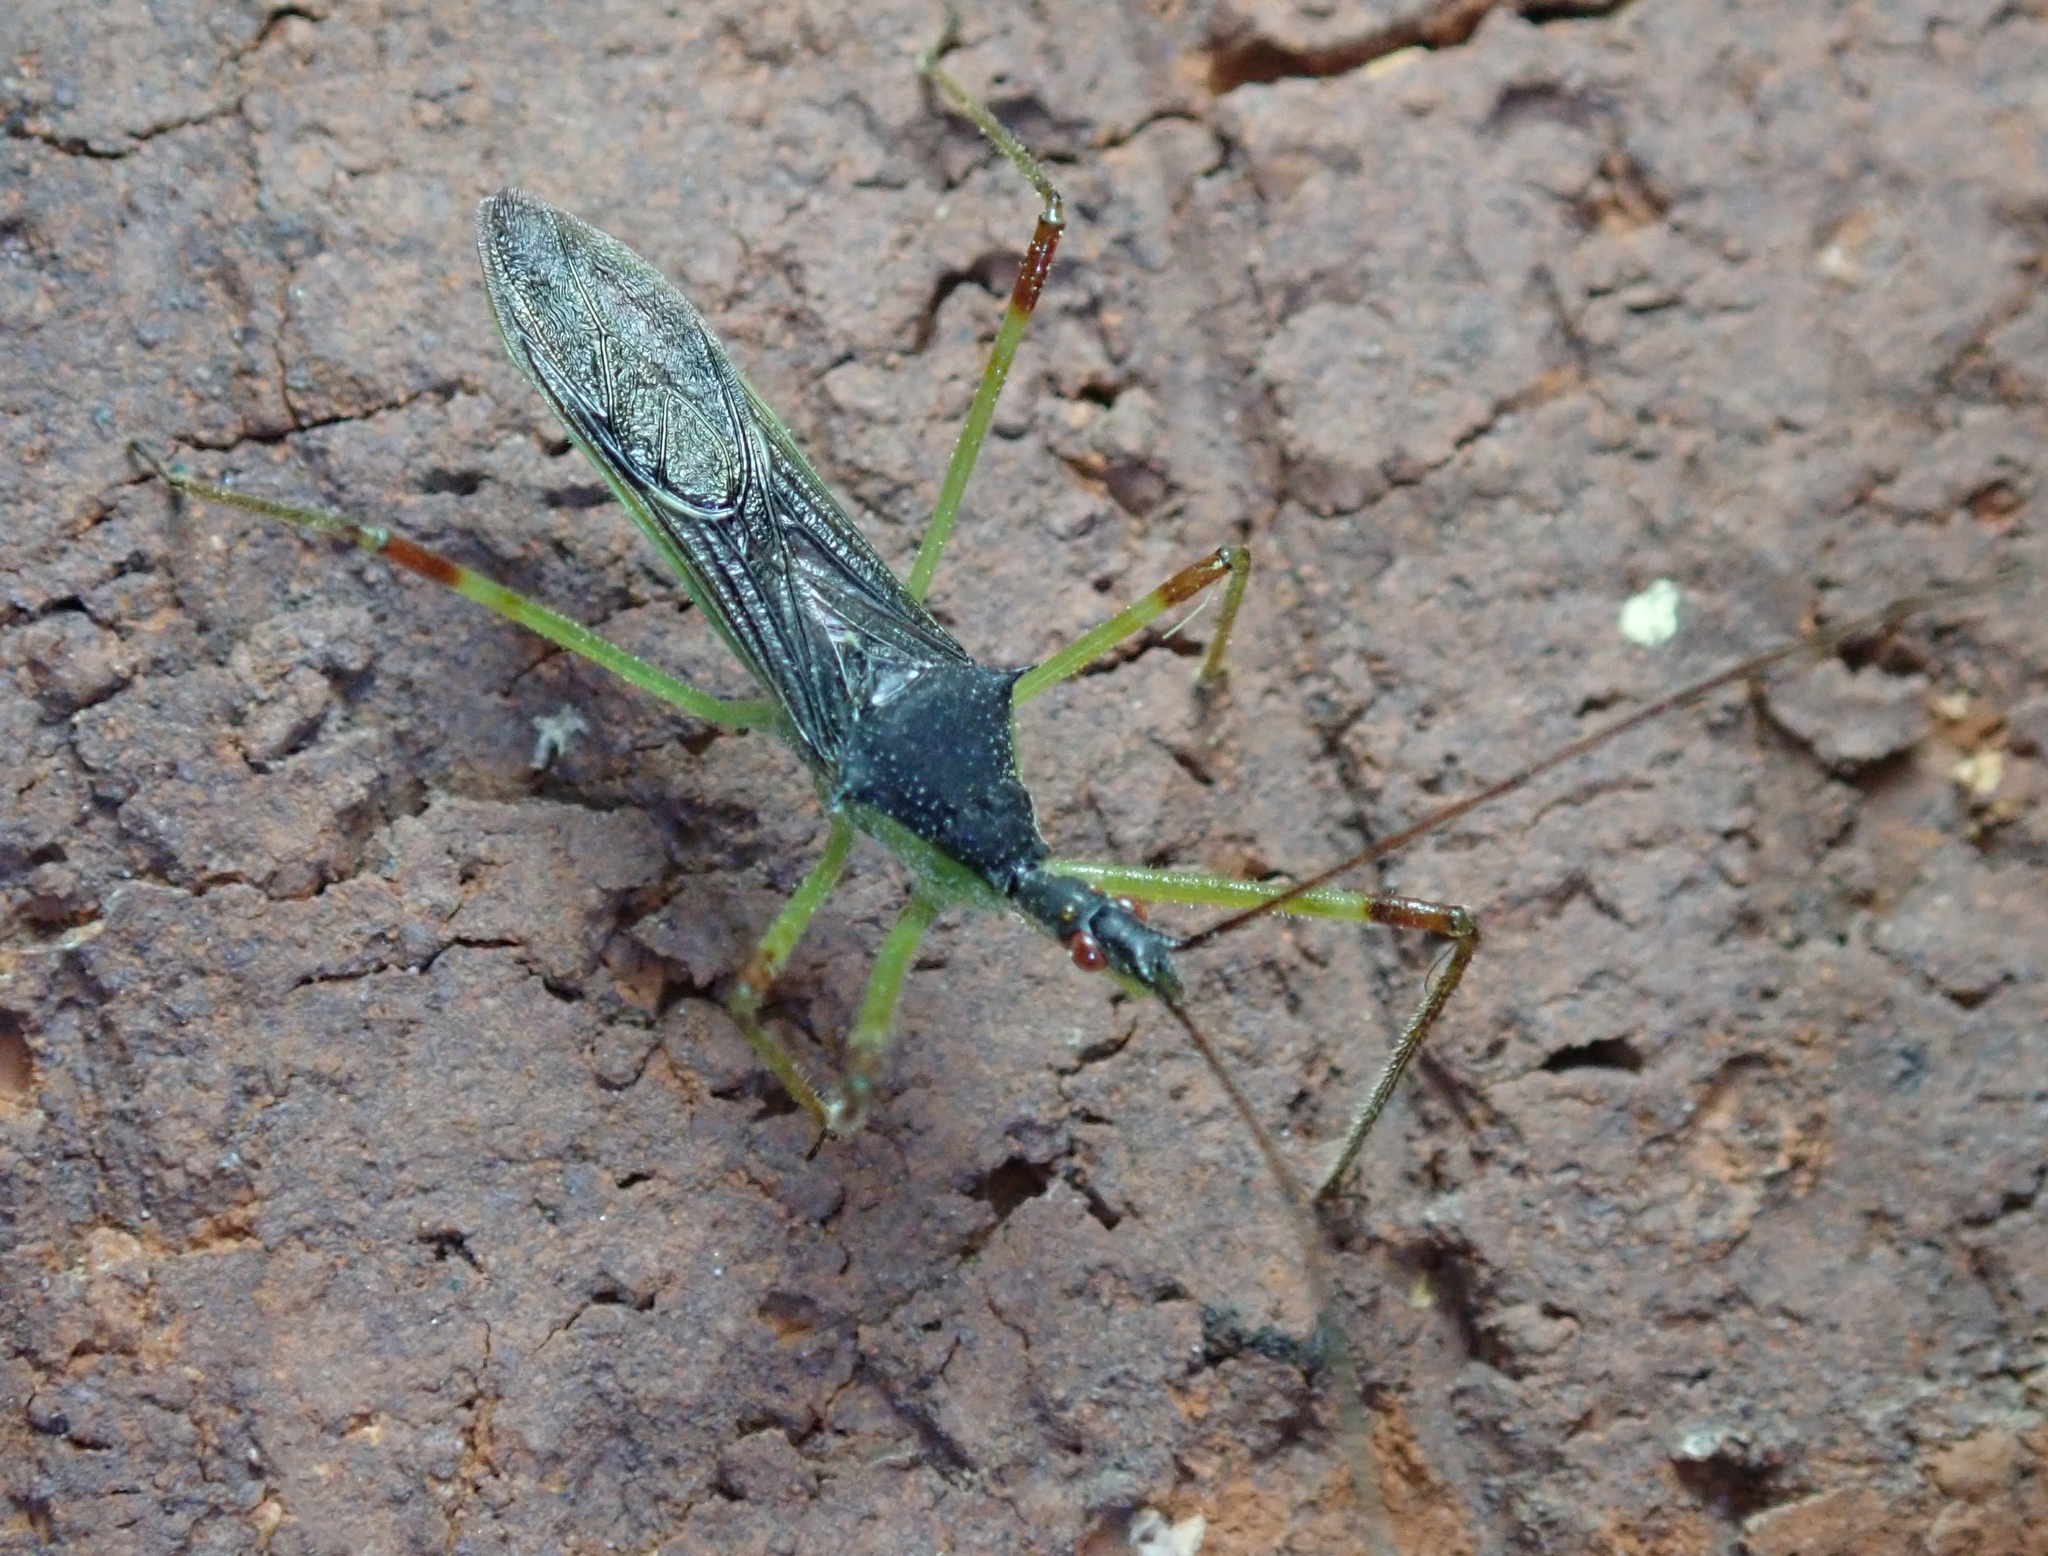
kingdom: Animalia
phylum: Arthropoda
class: Insecta
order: Hemiptera
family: Reduviidae
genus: Zelus
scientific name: Zelus luridus
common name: Pale green assassin bug
